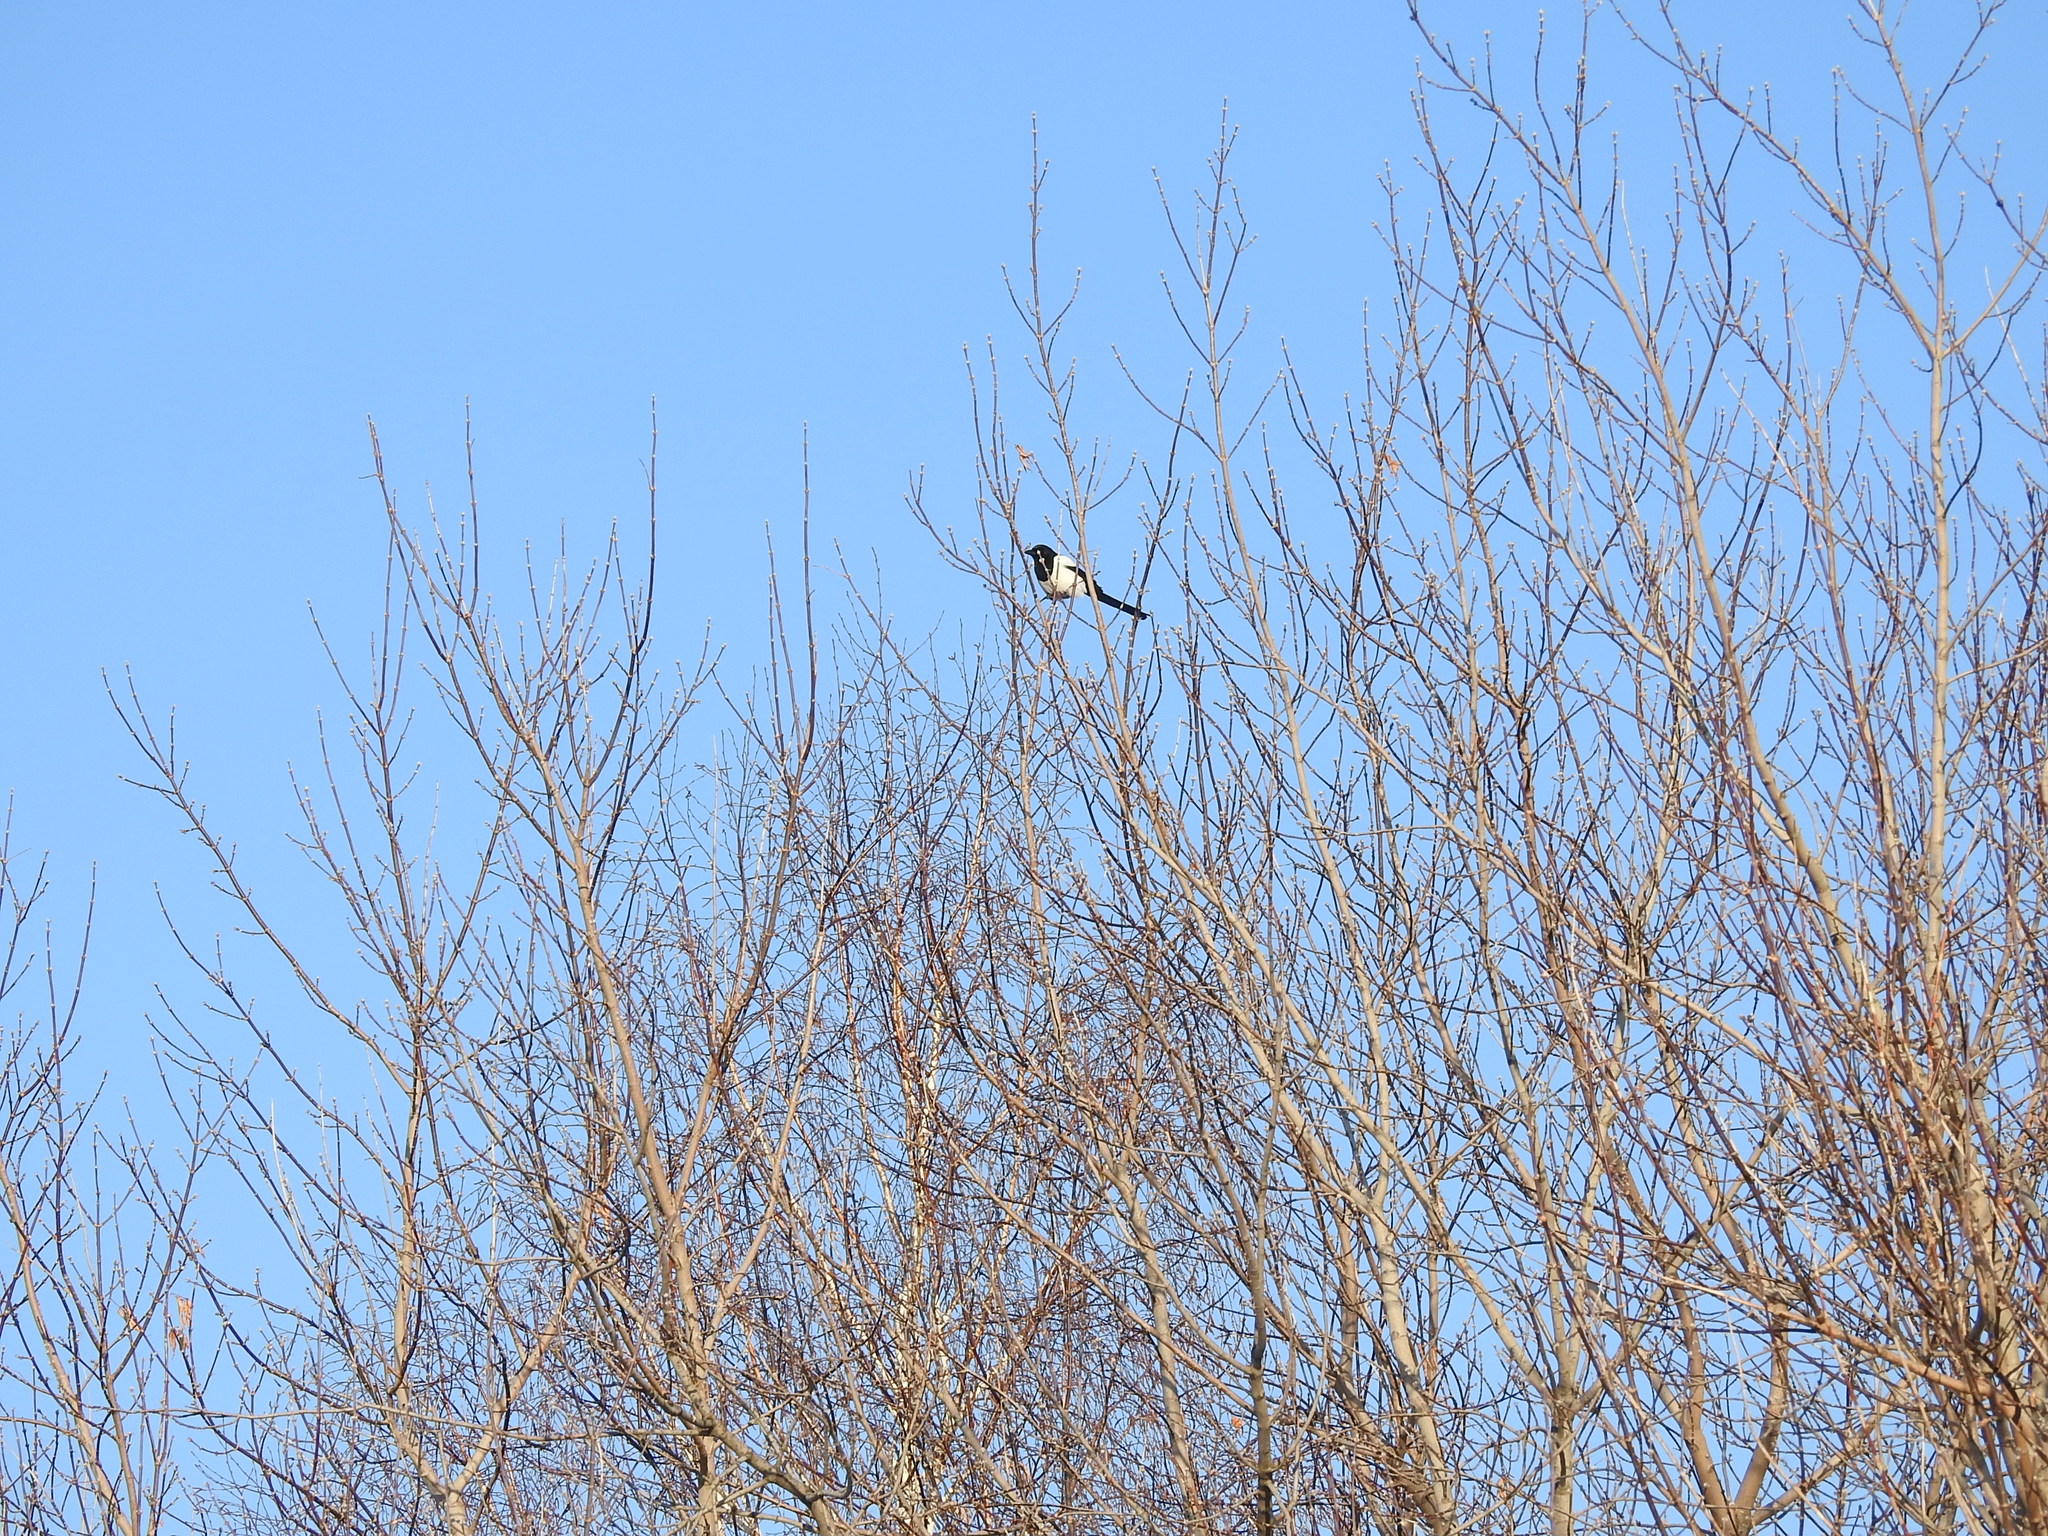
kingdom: Animalia
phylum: Chordata
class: Aves
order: Passeriformes
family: Corvidae
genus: Pica
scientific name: Pica pica
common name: Eurasian magpie
